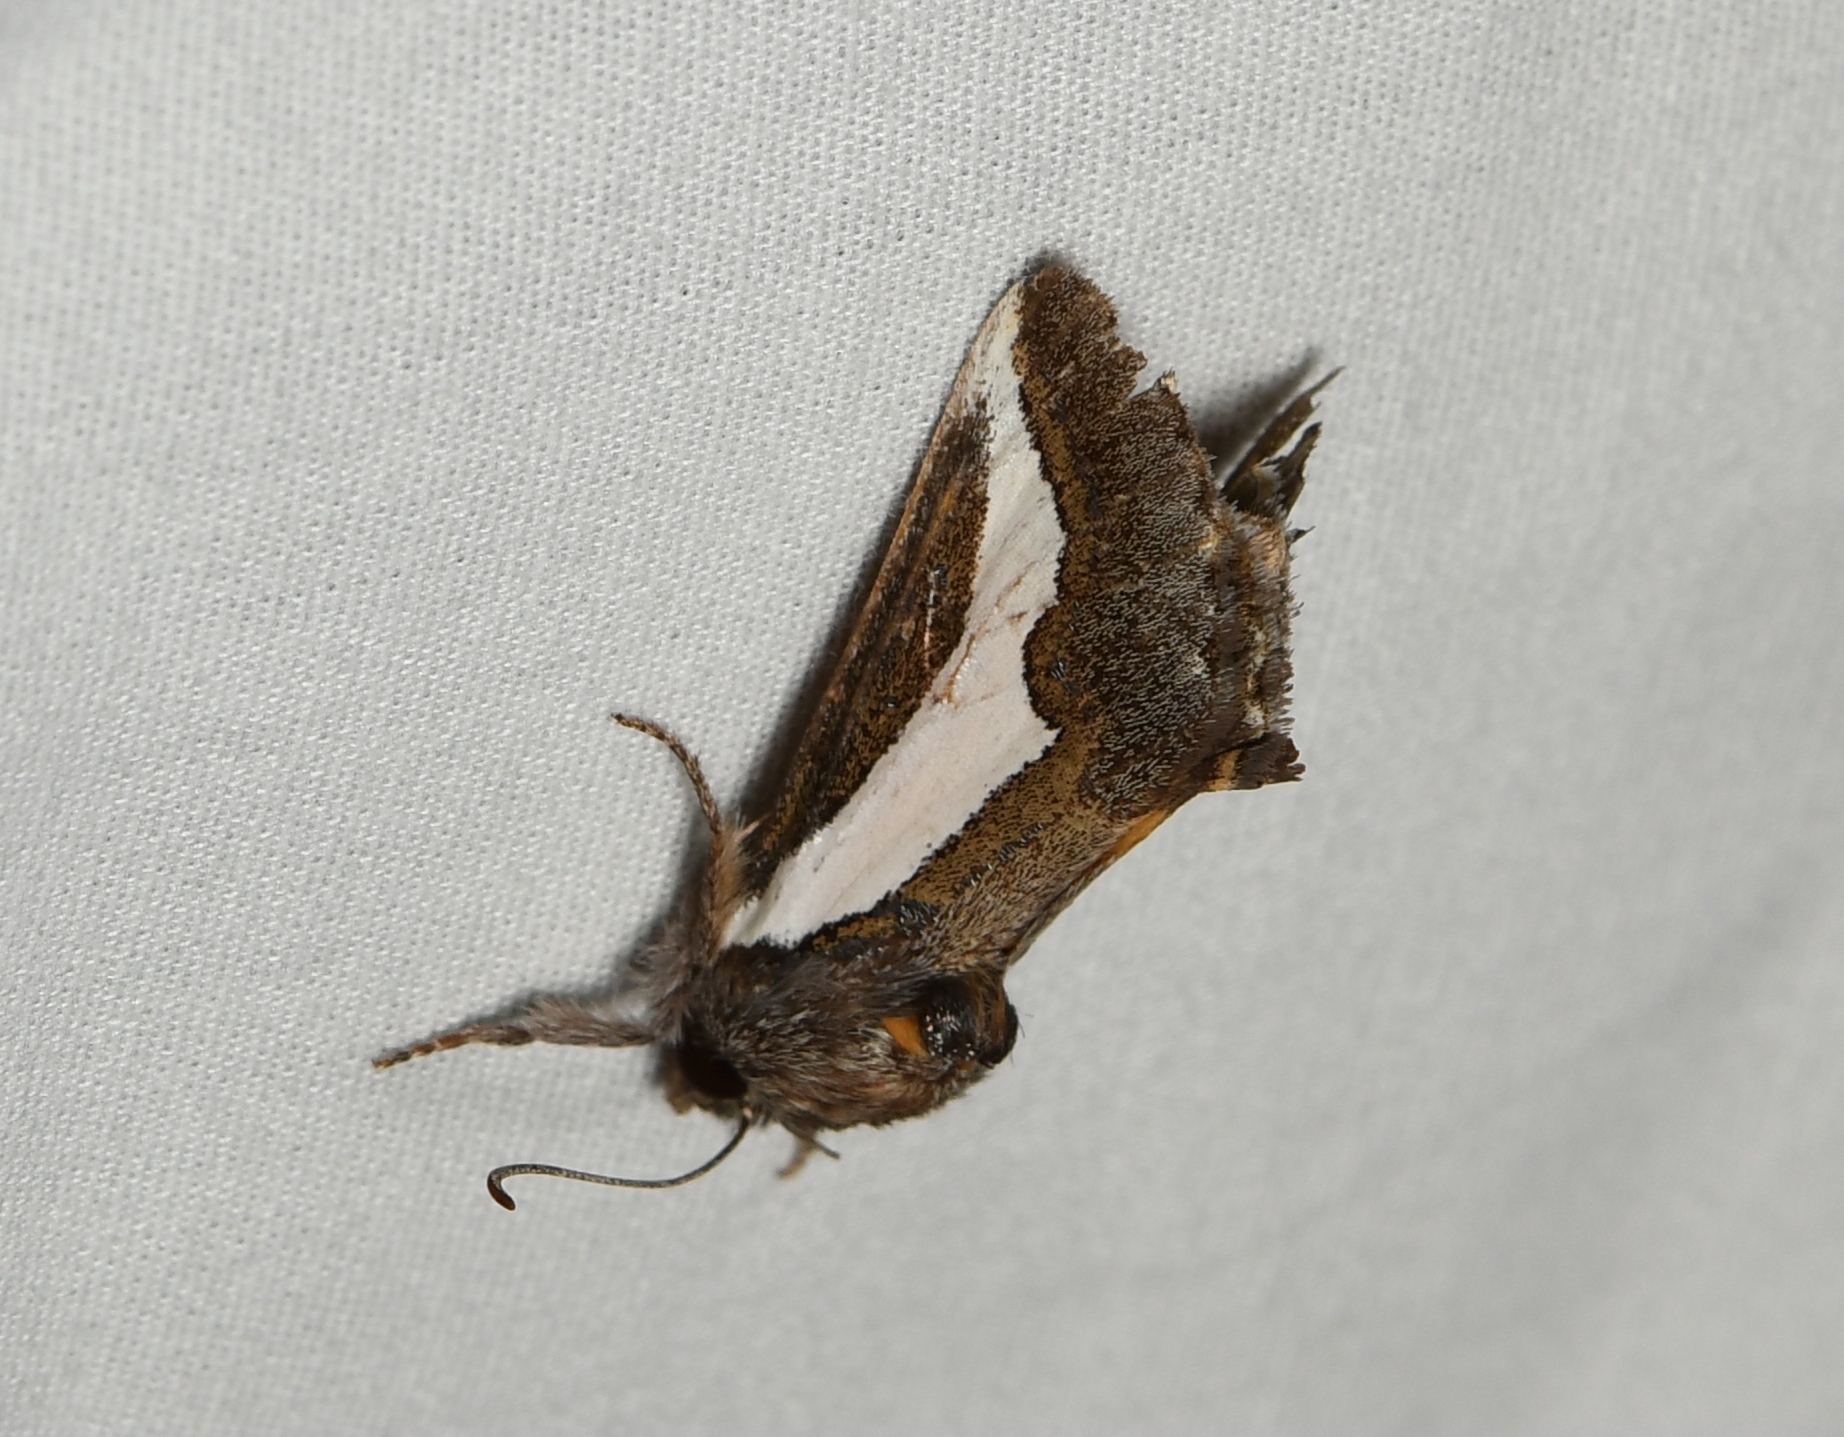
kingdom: Animalia
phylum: Arthropoda
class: Insecta
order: Lepidoptera
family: Noctuidae
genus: Euscirrhopterus
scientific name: Euscirrhopterus cosyra
